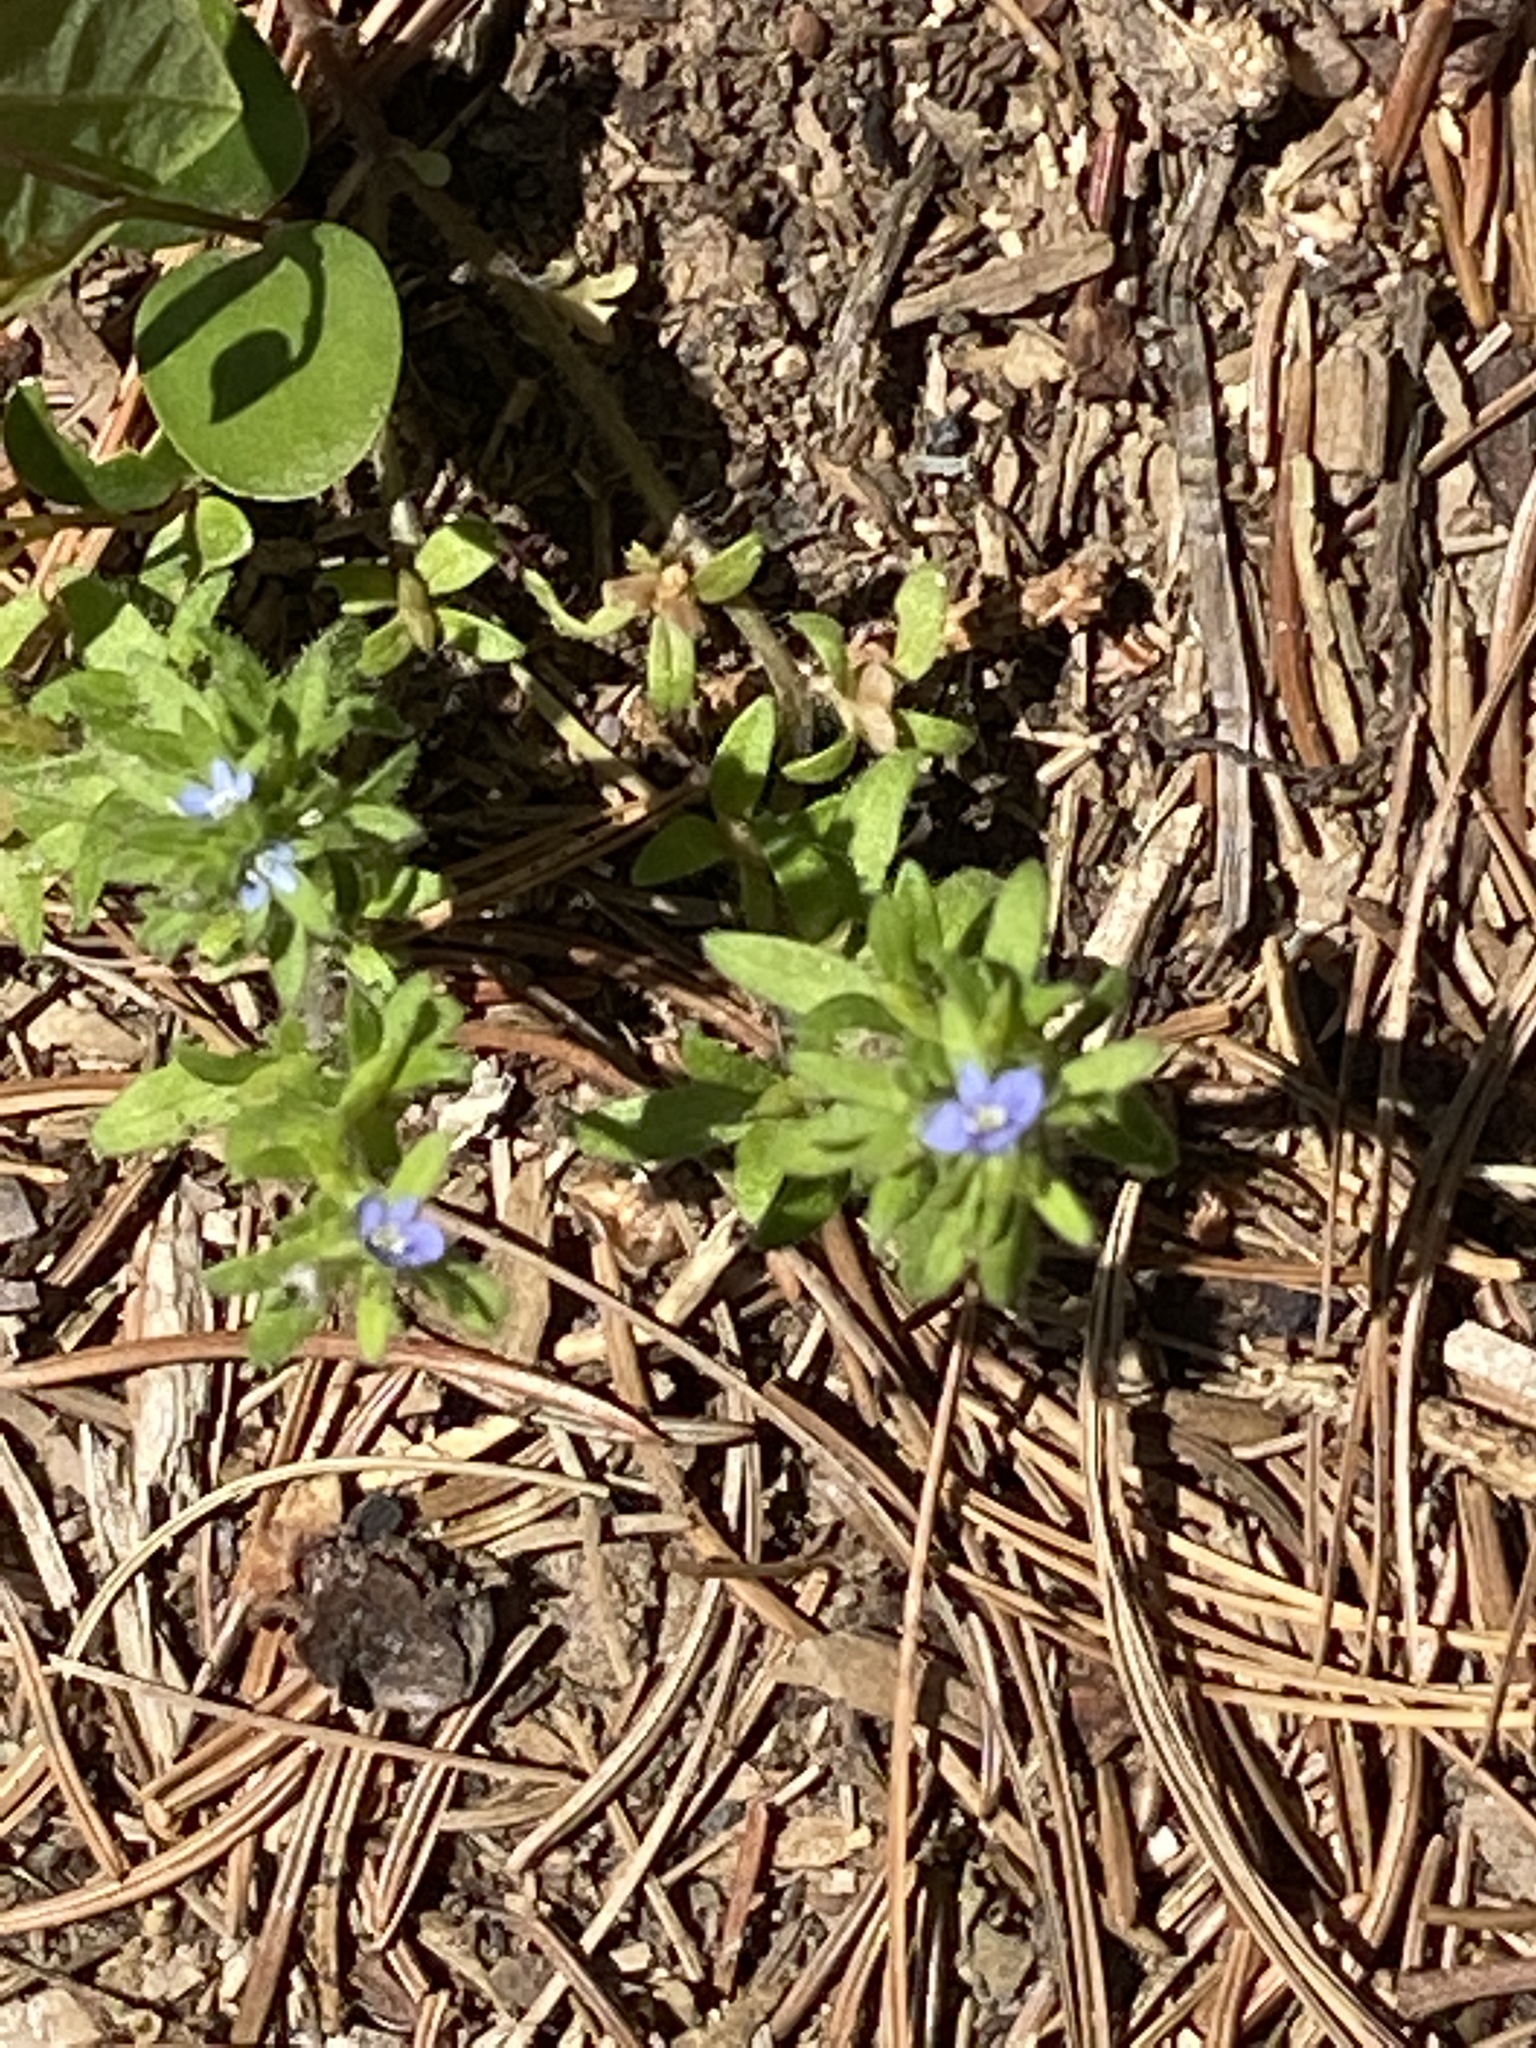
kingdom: Plantae
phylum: Tracheophyta
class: Magnoliopsida
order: Lamiales
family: Plantaginaceae
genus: Veronica
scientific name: Veronica arvensis
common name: Corn speedwell
